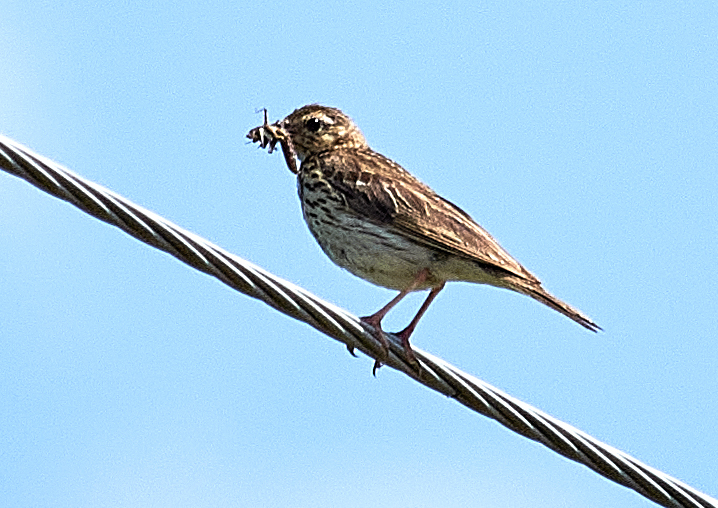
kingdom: Animalia
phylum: Chordata
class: Aves
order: Passeriformes
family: Motacillidae
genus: Anthus
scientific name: Anthus trivialis
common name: Tree pipit
